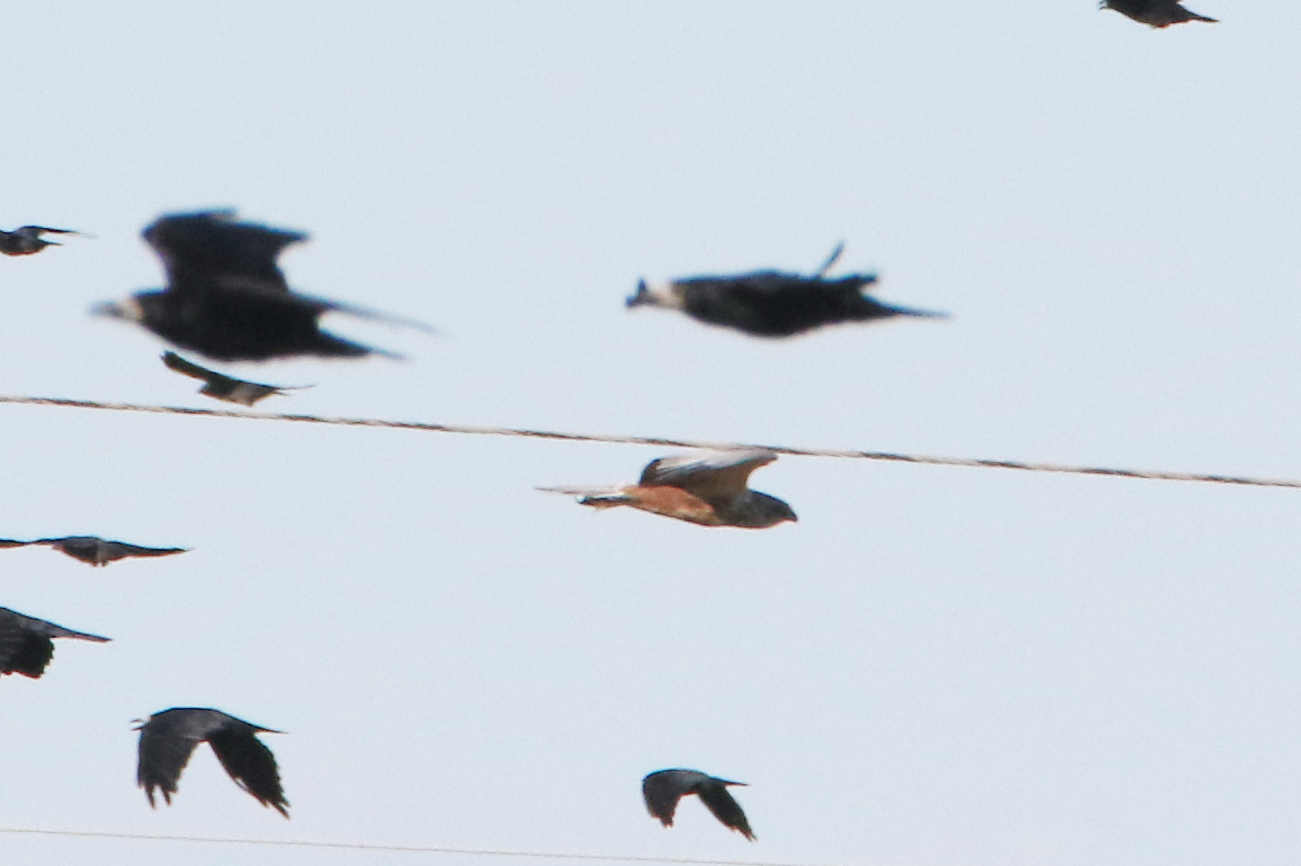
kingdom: Animalia
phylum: Chordata
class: Aves
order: Accipitriformes
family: Accipitridae
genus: Circus
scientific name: Circus aeruginosus
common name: Western marsh harrier
